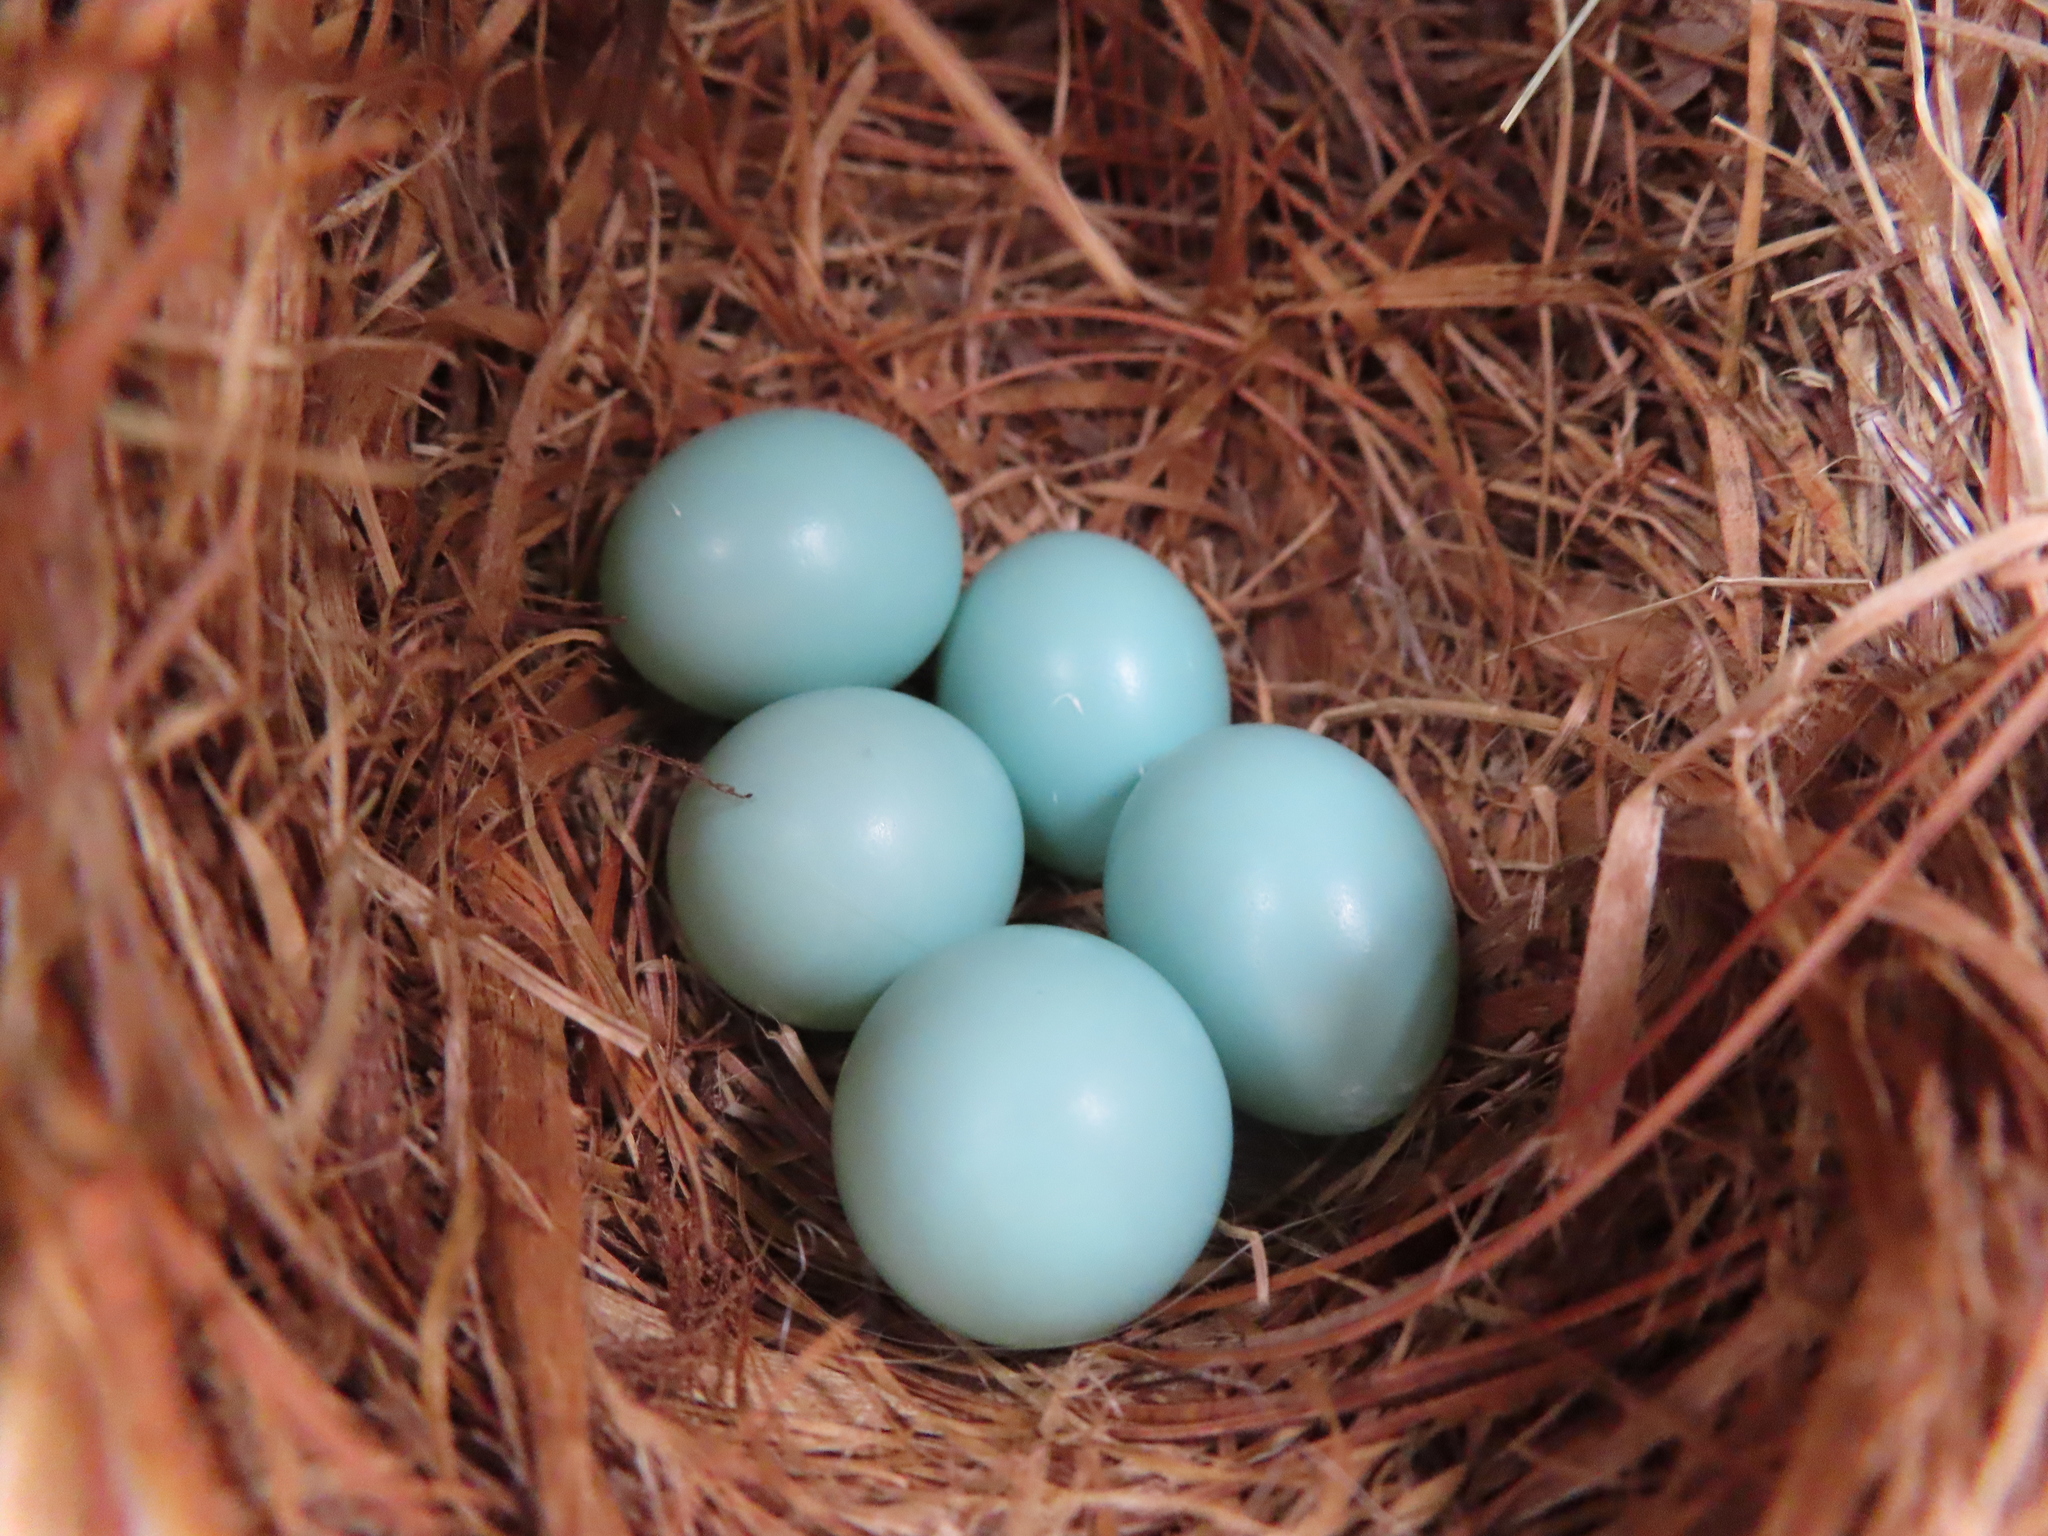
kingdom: Animalia
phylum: Chordata
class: Aves
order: Passeriformes
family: Turdidae
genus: Sialia
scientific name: Sialia sialis
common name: Eastern bluebird
